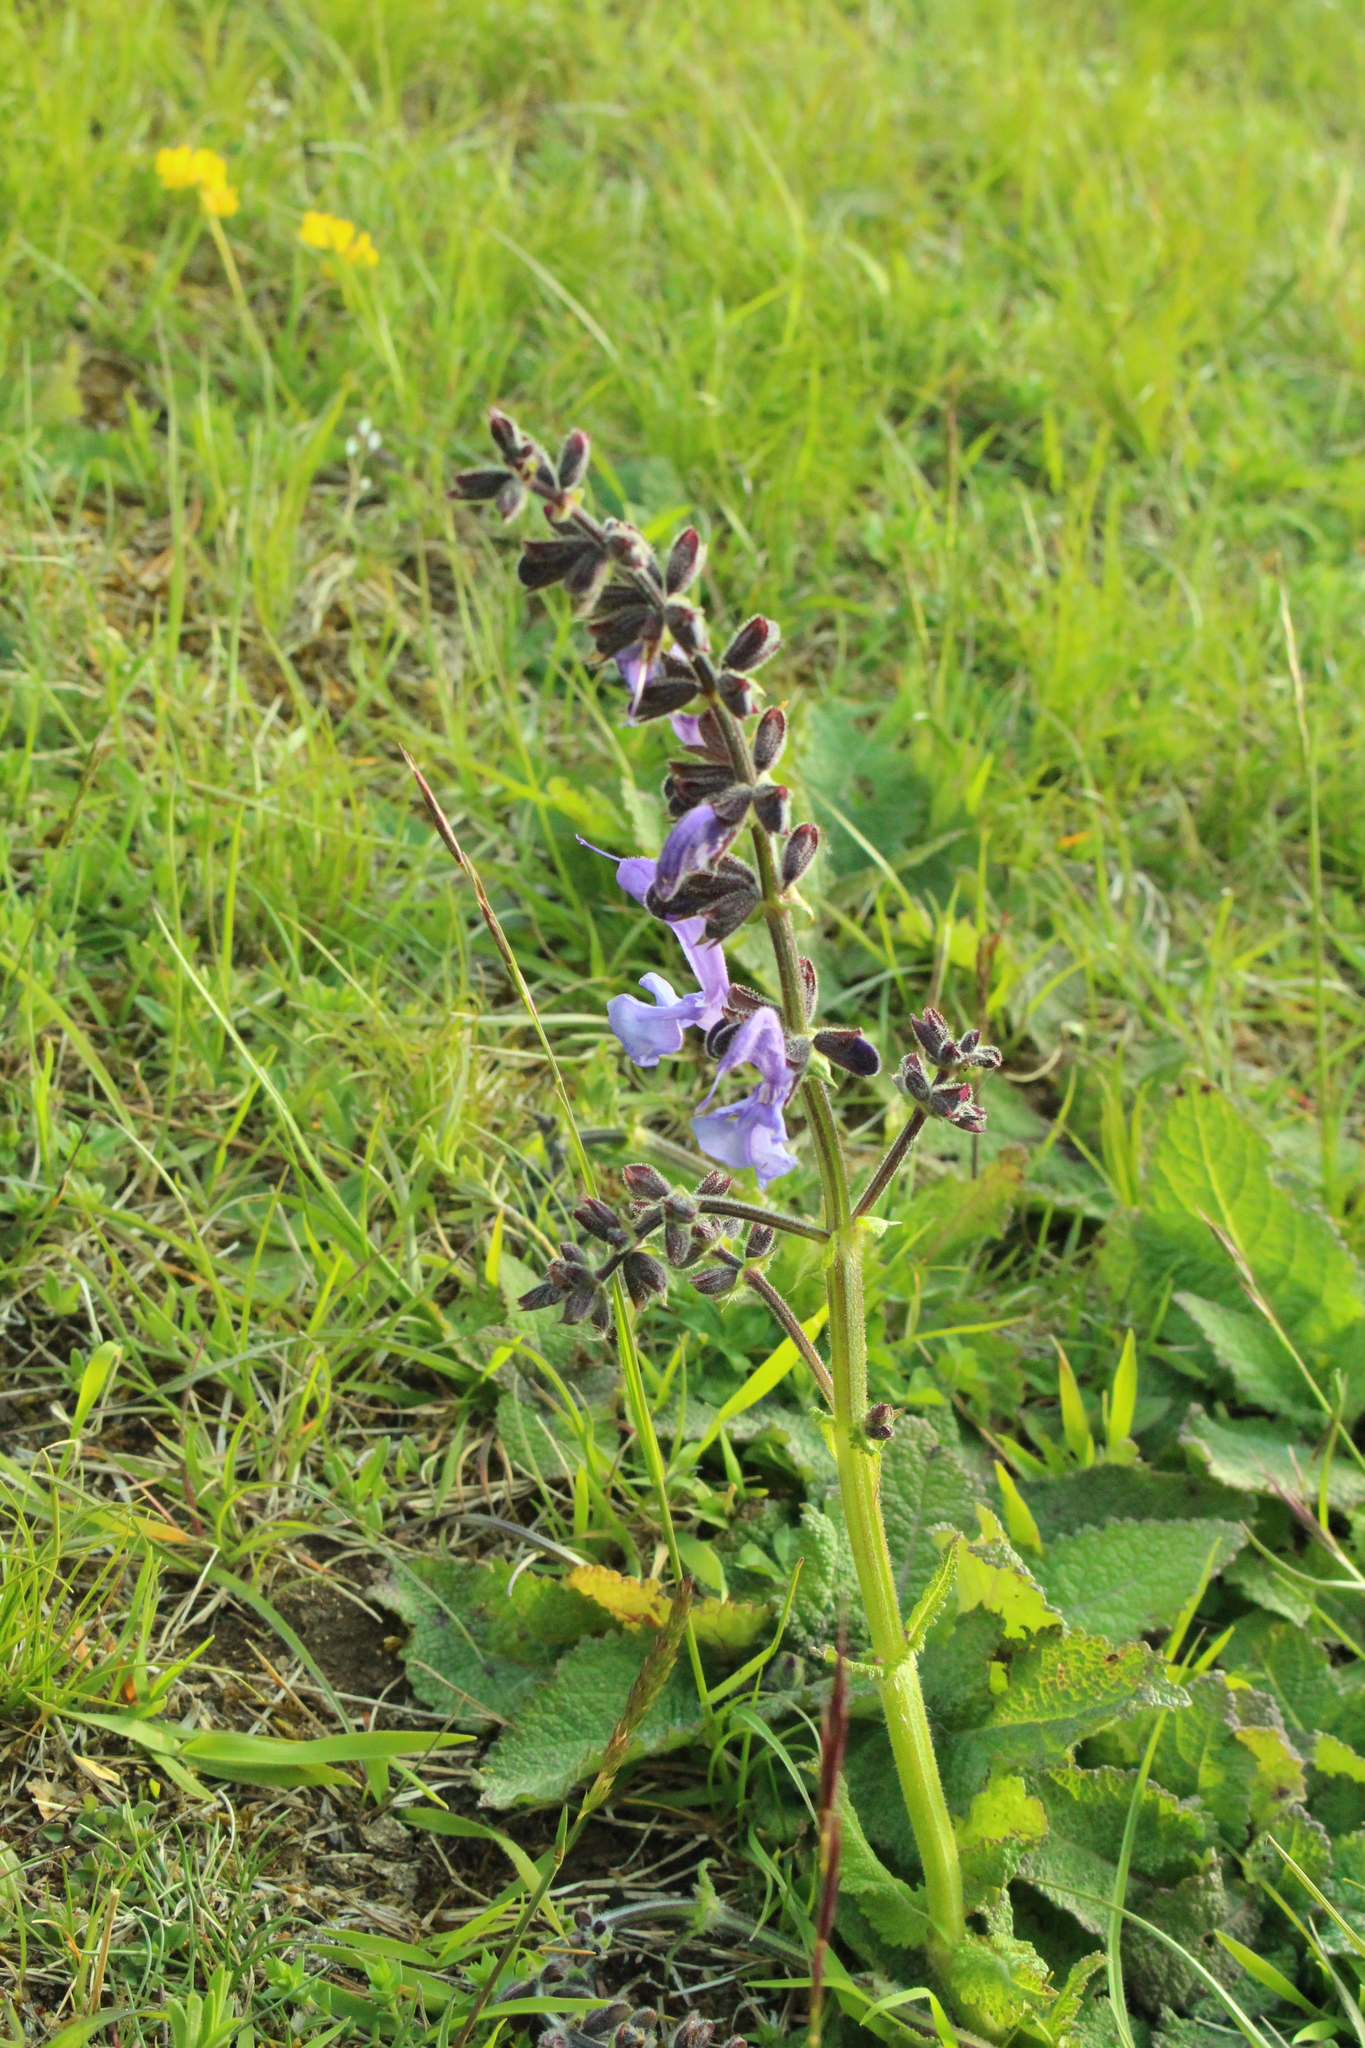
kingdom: Plantae
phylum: Tracheophyta
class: Magnoliopsida
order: Lamiales
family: Lamiaceae
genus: Salvia
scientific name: Salvia pratensis
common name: Meadow sage
